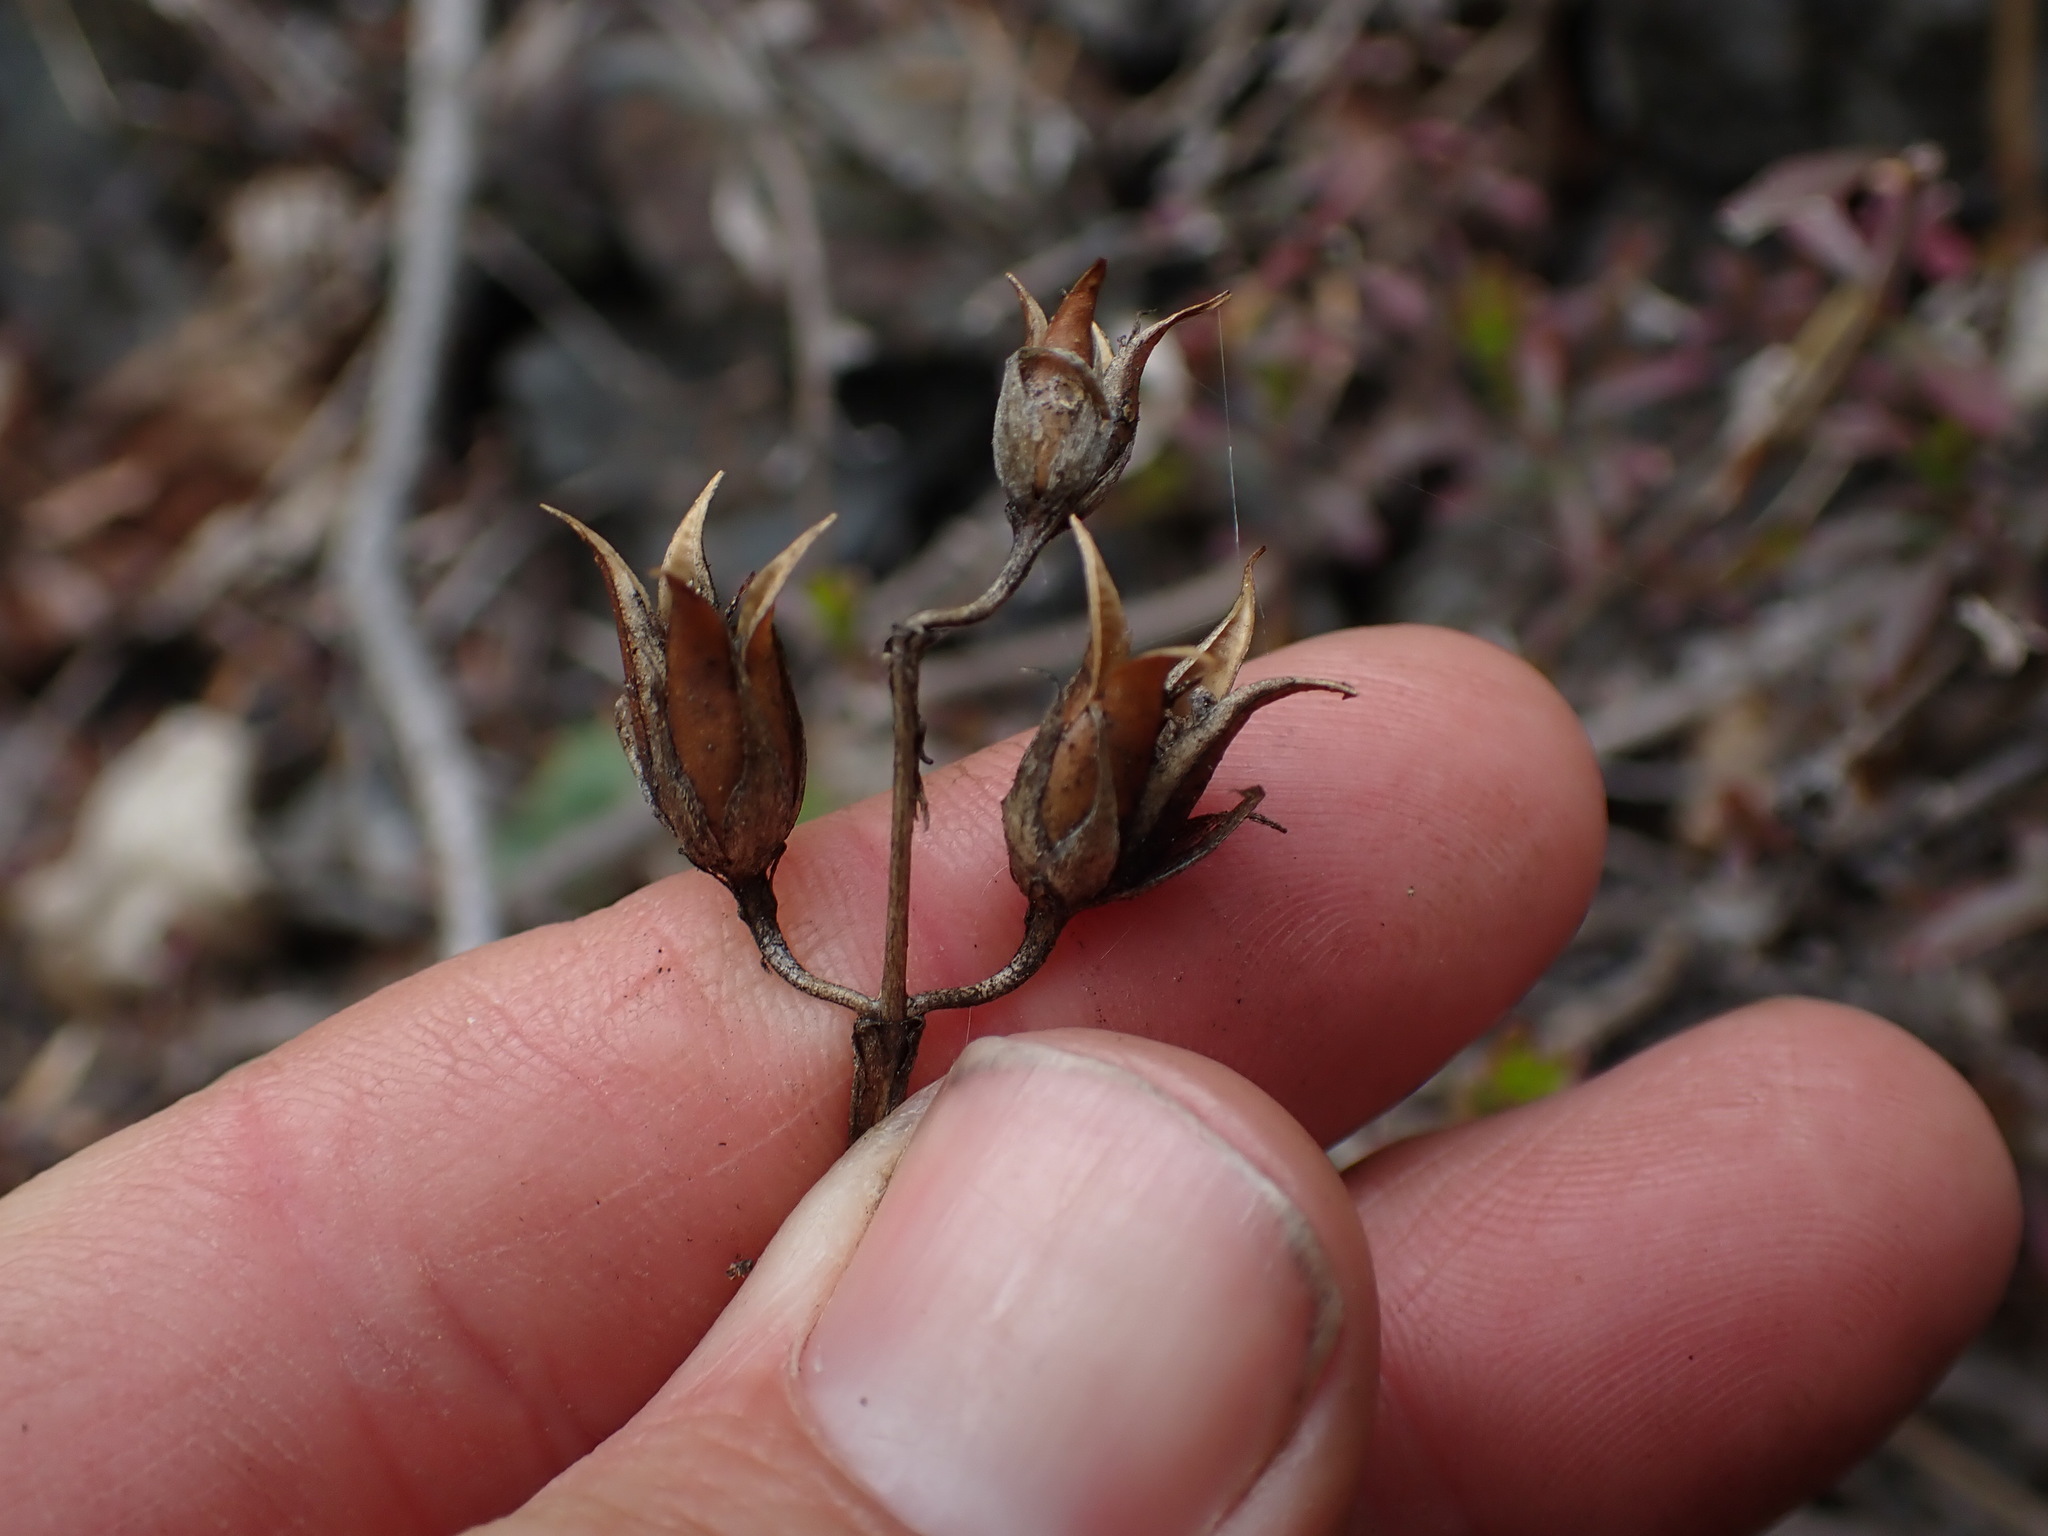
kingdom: Plantae
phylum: Tracheophyta
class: Magnoliopsida
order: Lamiales
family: Plantaginaceae
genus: Penstemon
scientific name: Penstemon fruticosus
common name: Bush penstemon
